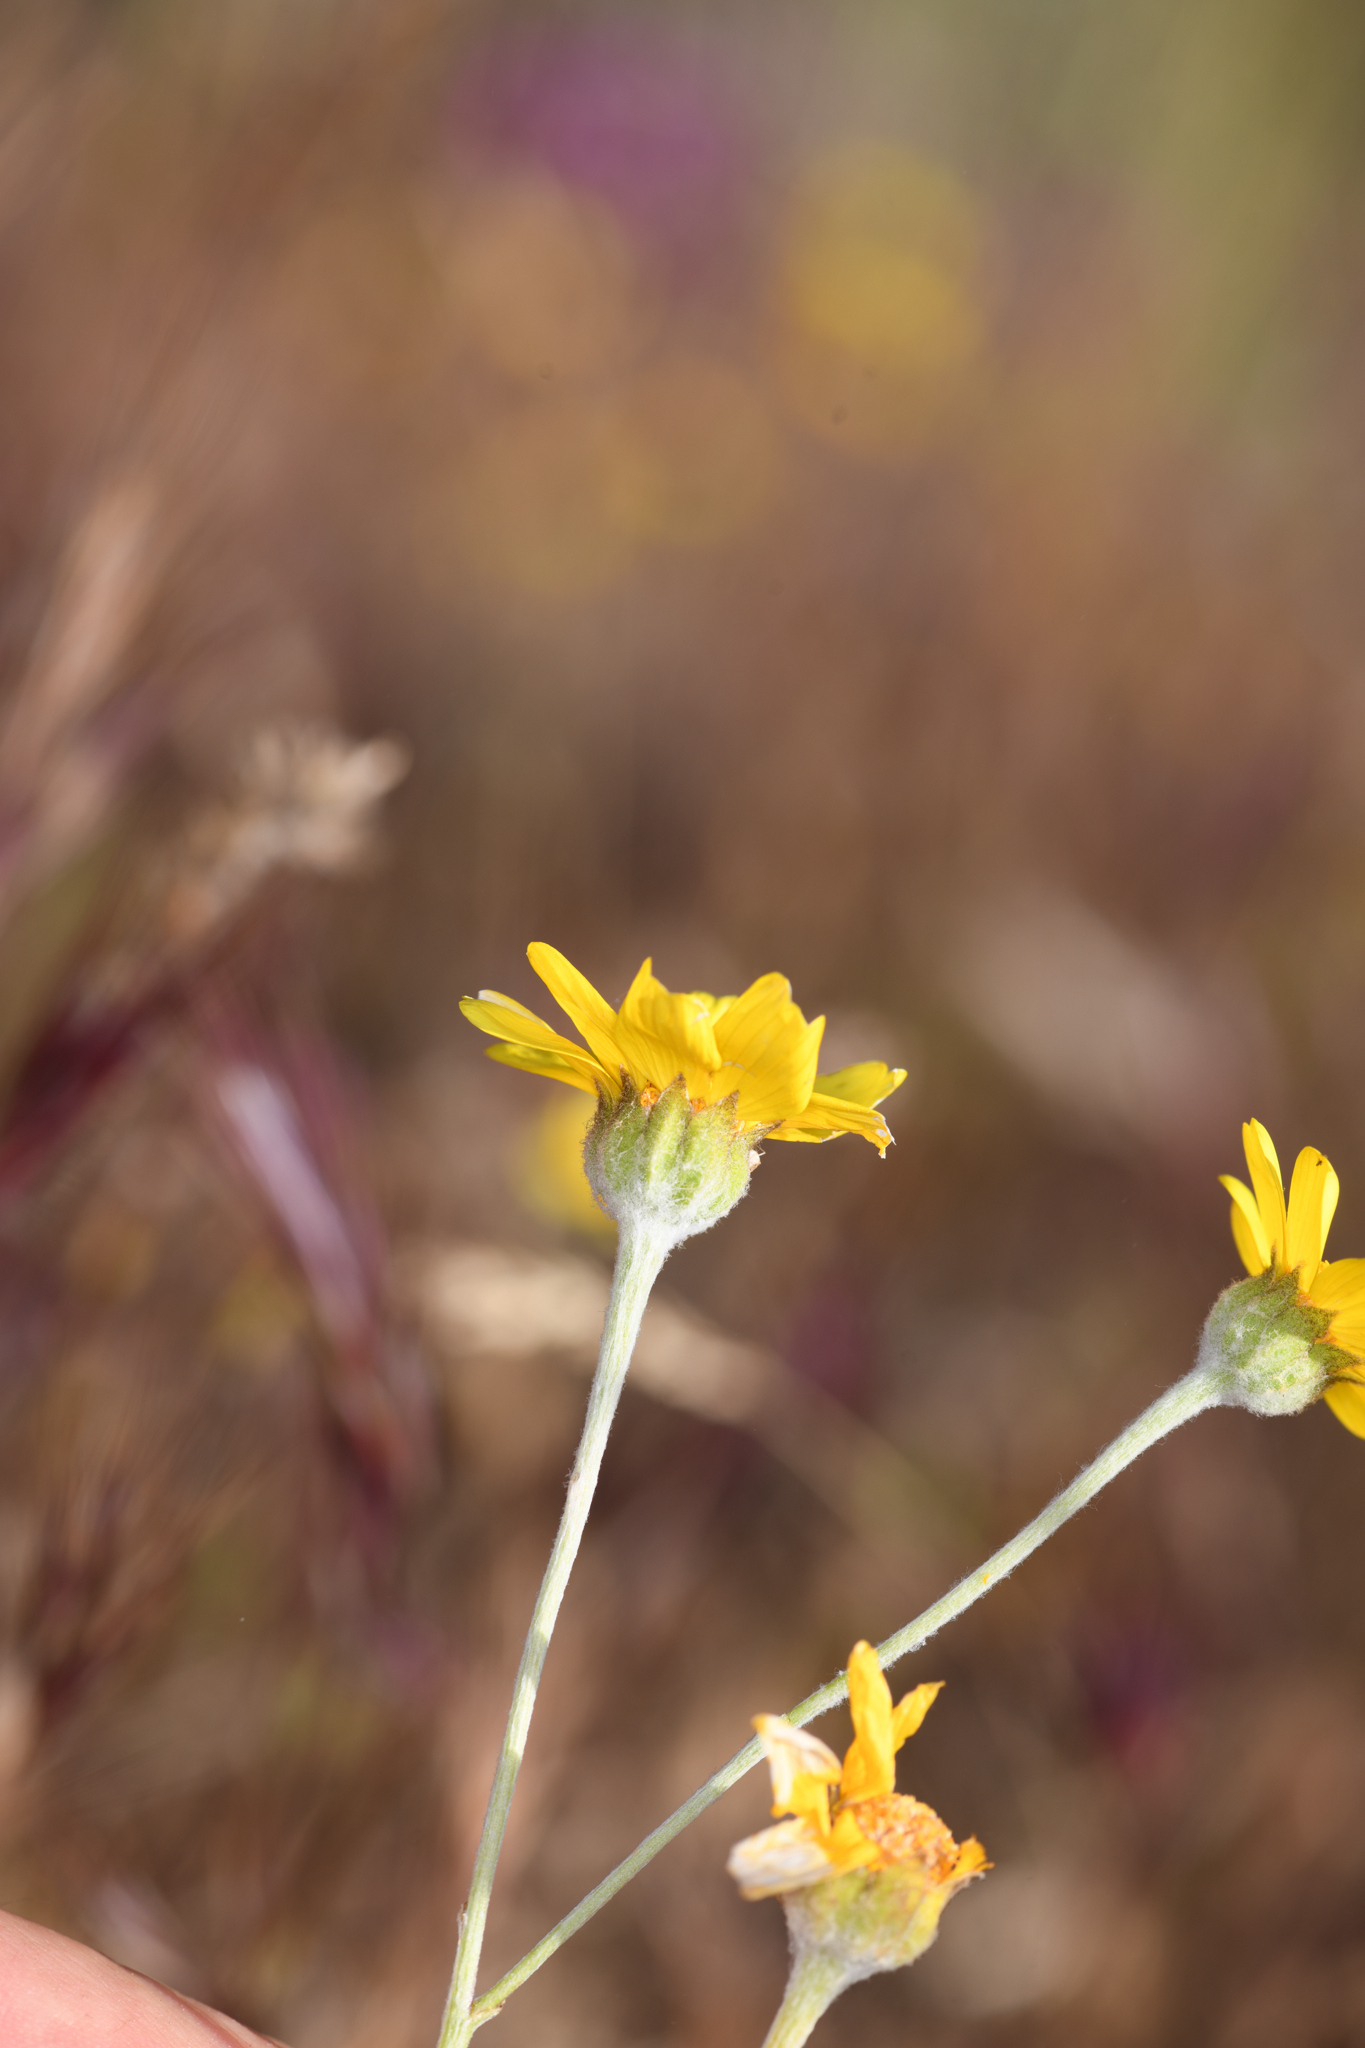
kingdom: Plantae
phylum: Tracheophyta
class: Magnoliopsida
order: Asterales
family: Asteraceae
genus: Monolopia
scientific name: Monolopia lanceolata
